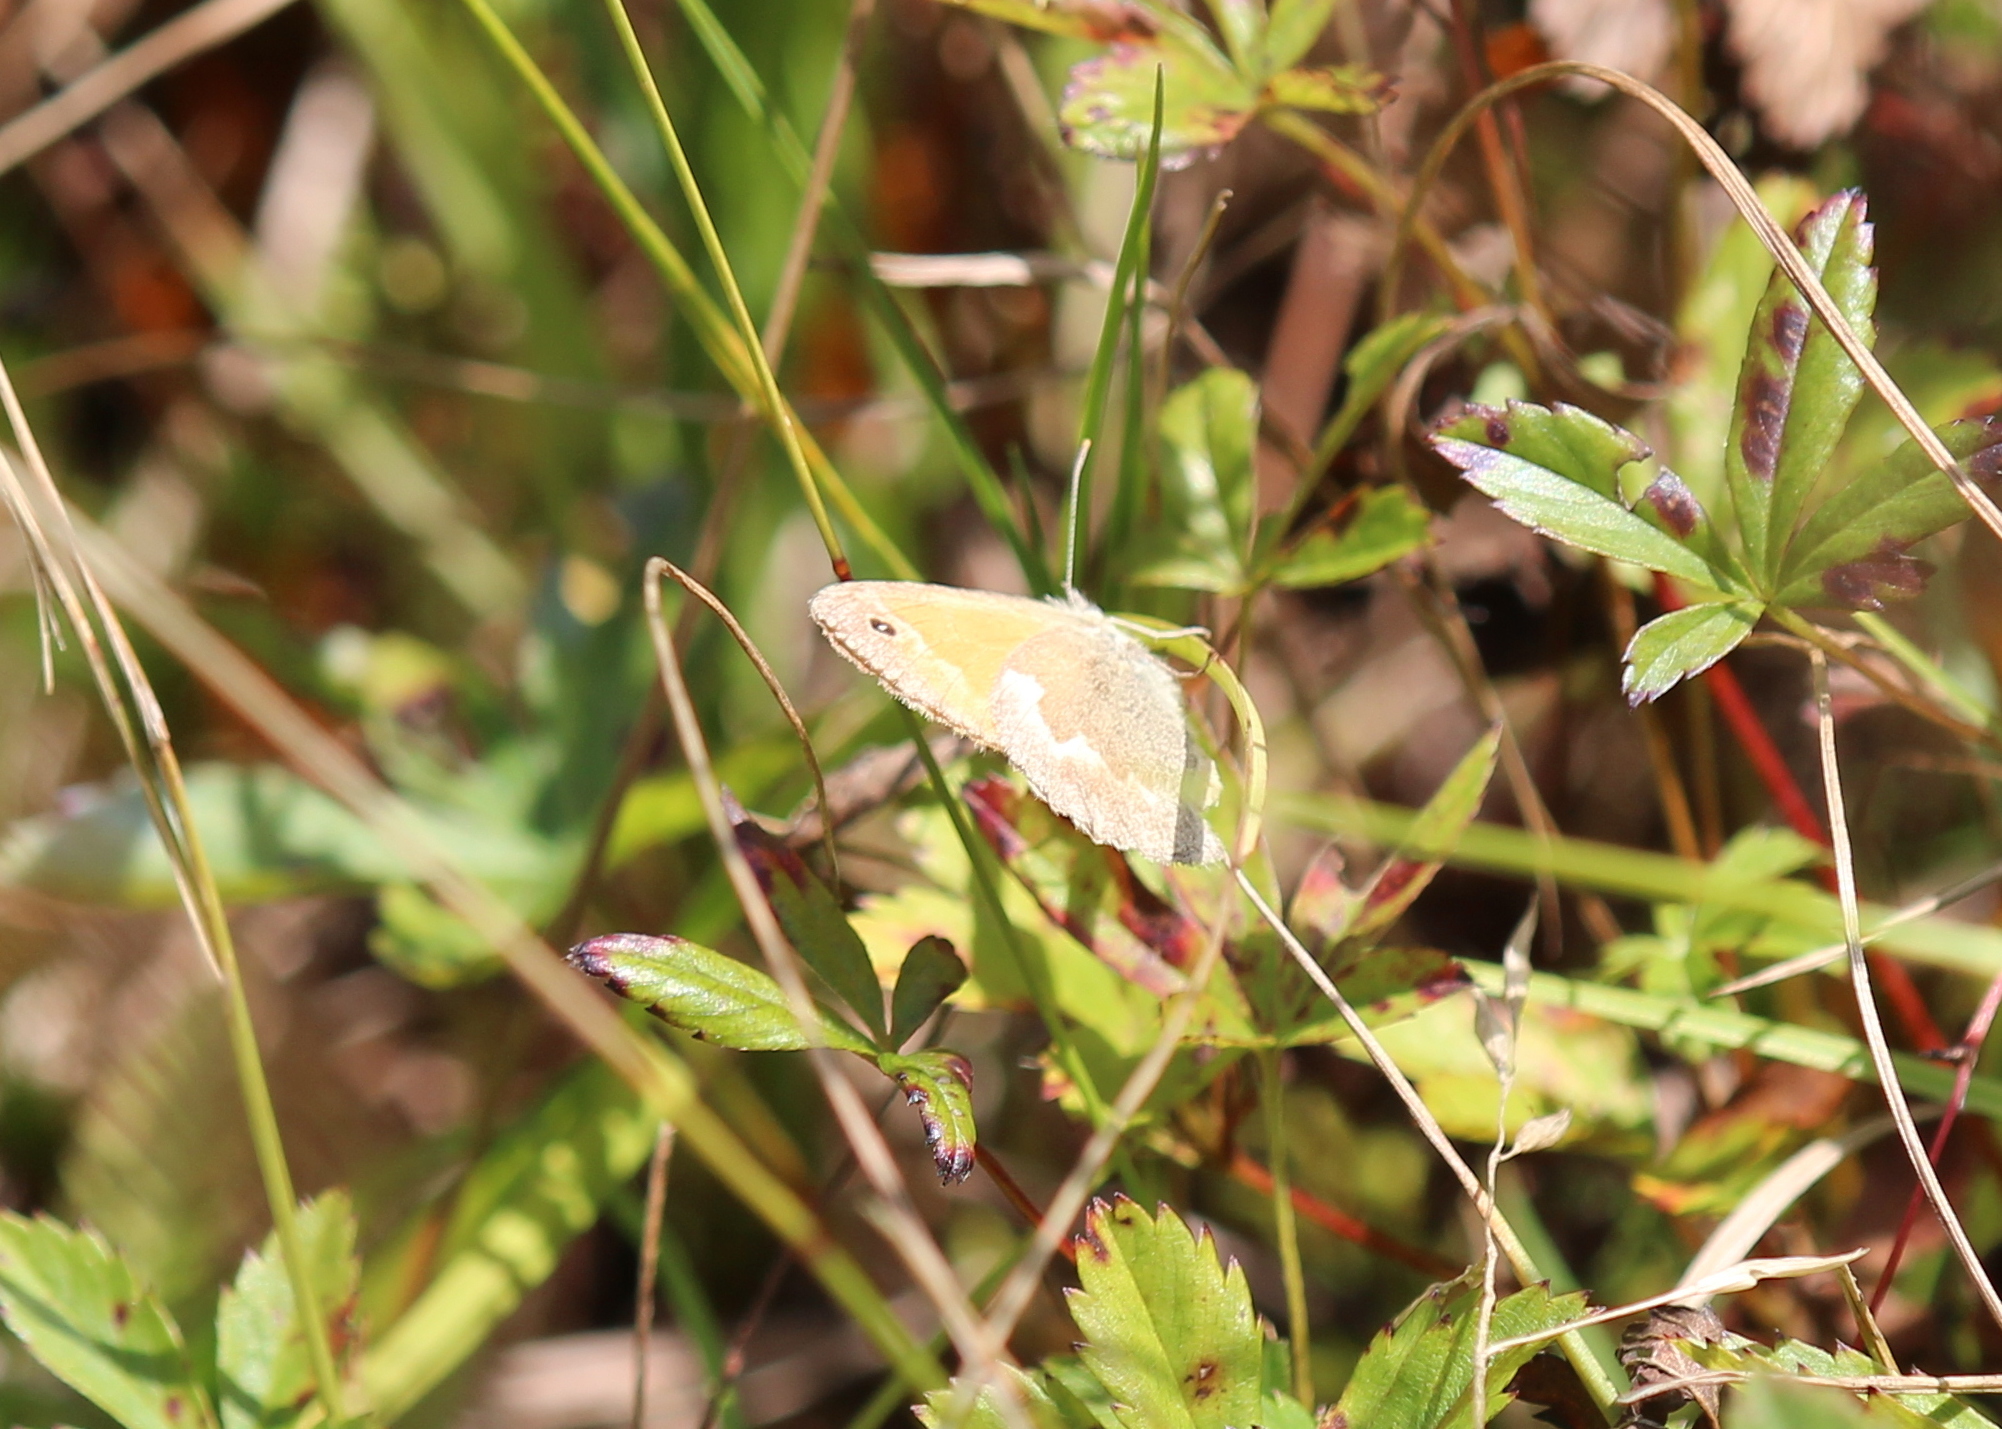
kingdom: Animalia
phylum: Arthropoda
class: Insecta
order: Lepidoptera
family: Nymphalidae
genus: Coenonympha
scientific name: Coenonympha california
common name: Common ringlet
